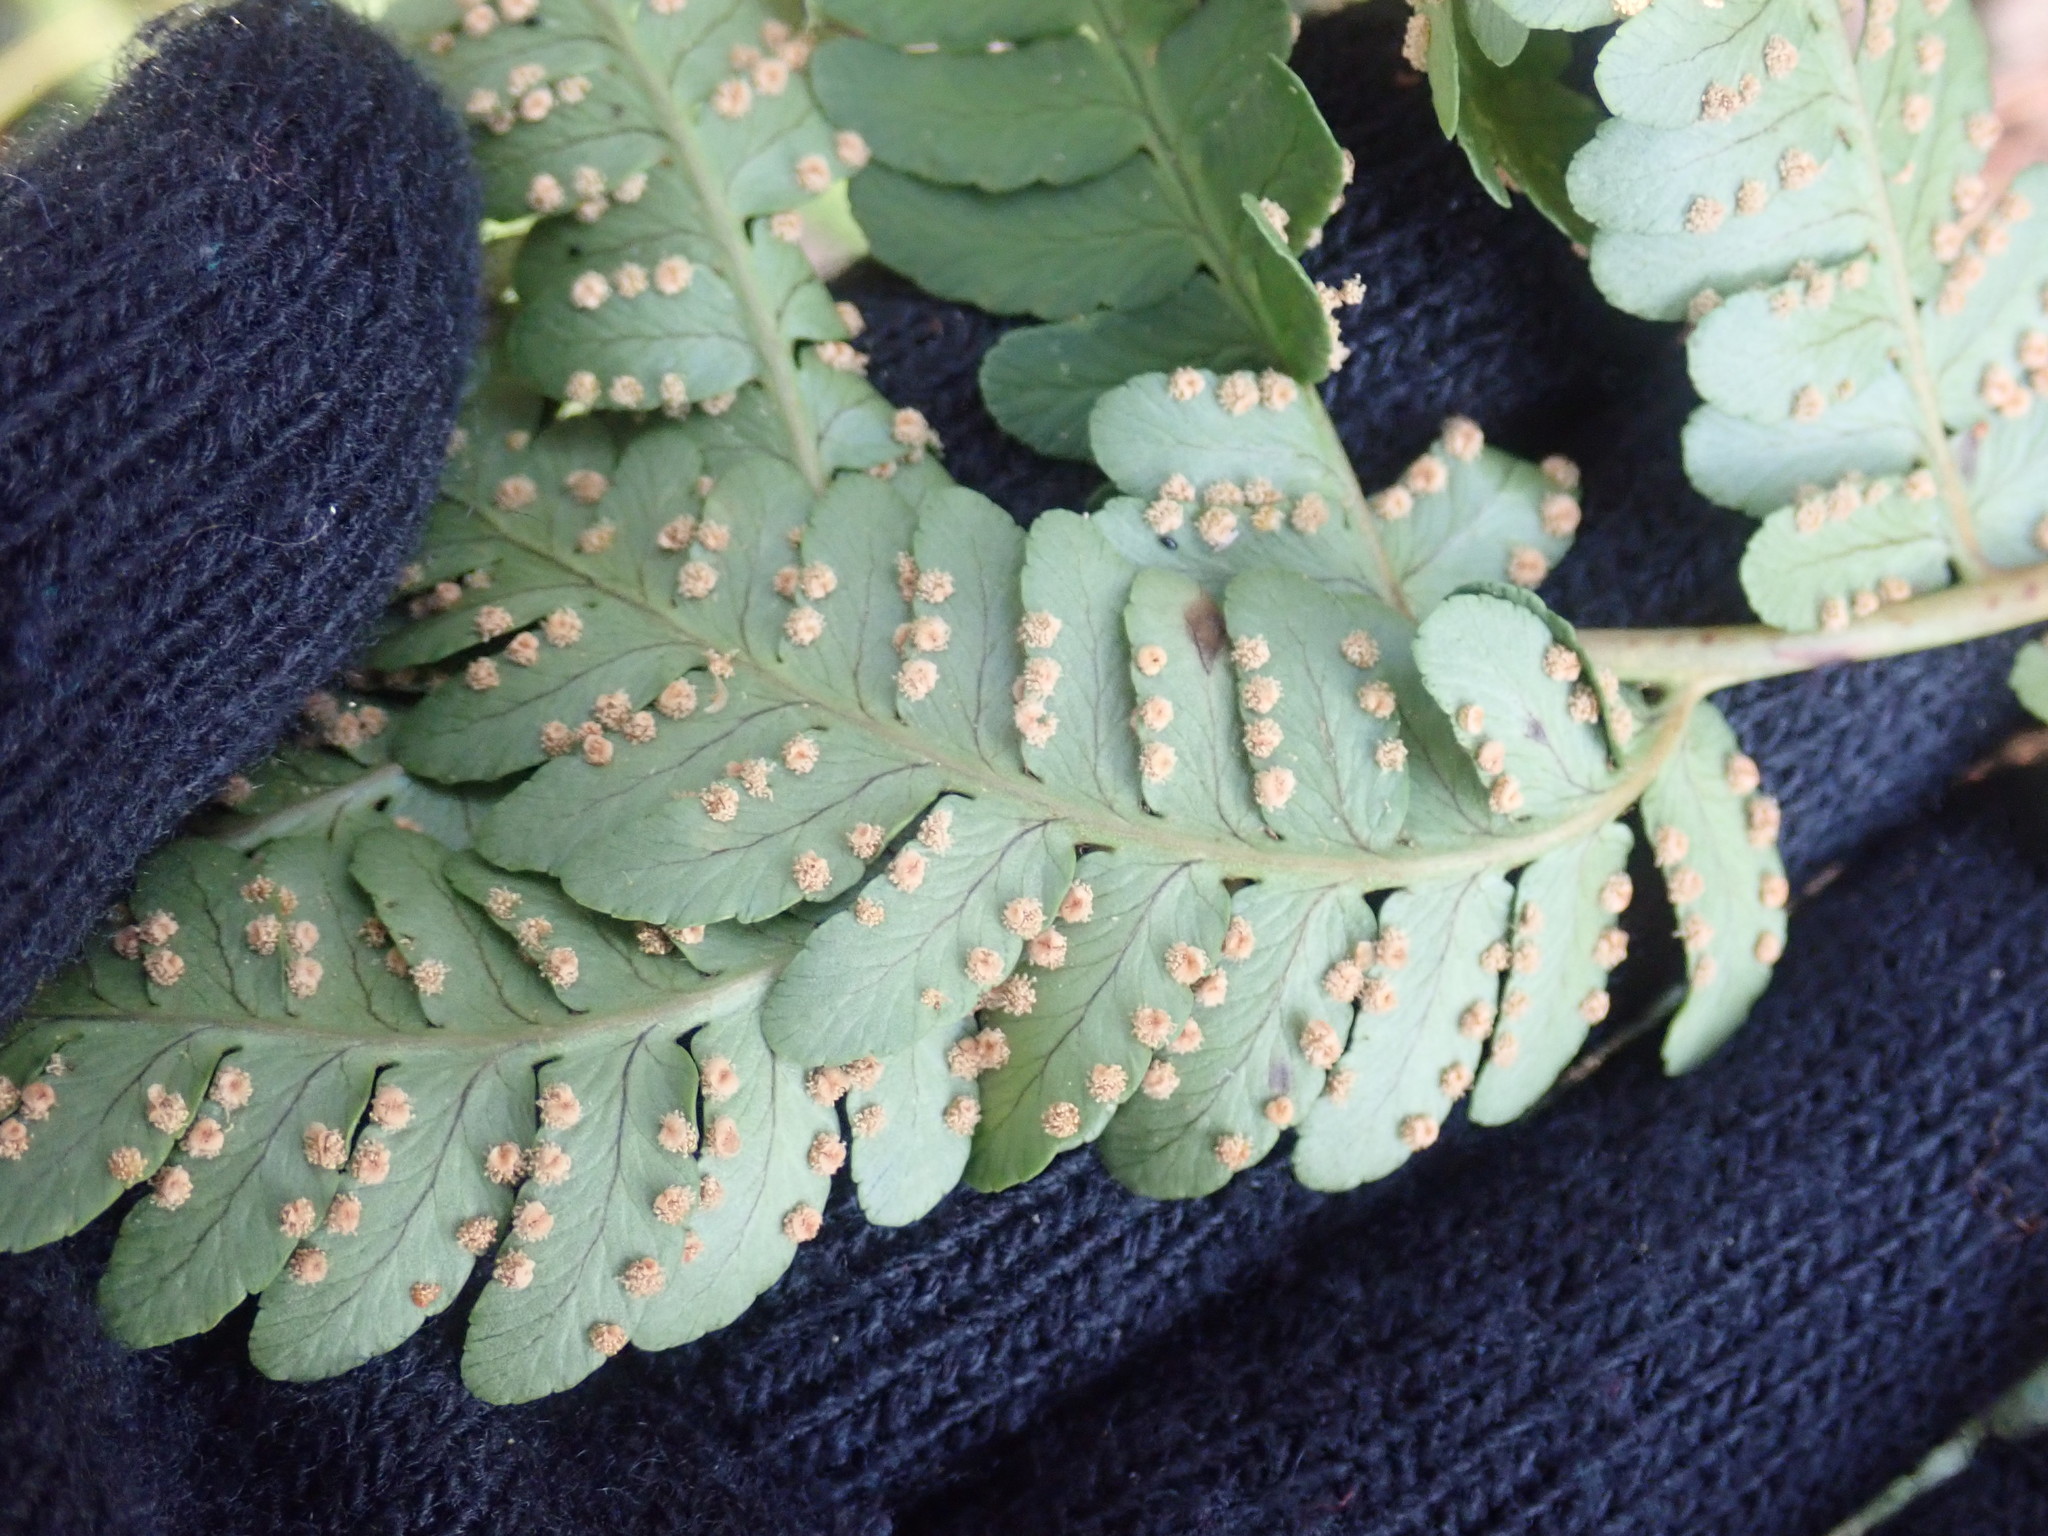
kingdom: Plantae
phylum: Tracheophyta
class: Polypodiopsida
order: Polypodiales
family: Dryopteridaceae
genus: Dryopteris
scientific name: Dryopteris marginalis
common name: Marginal wood fern
